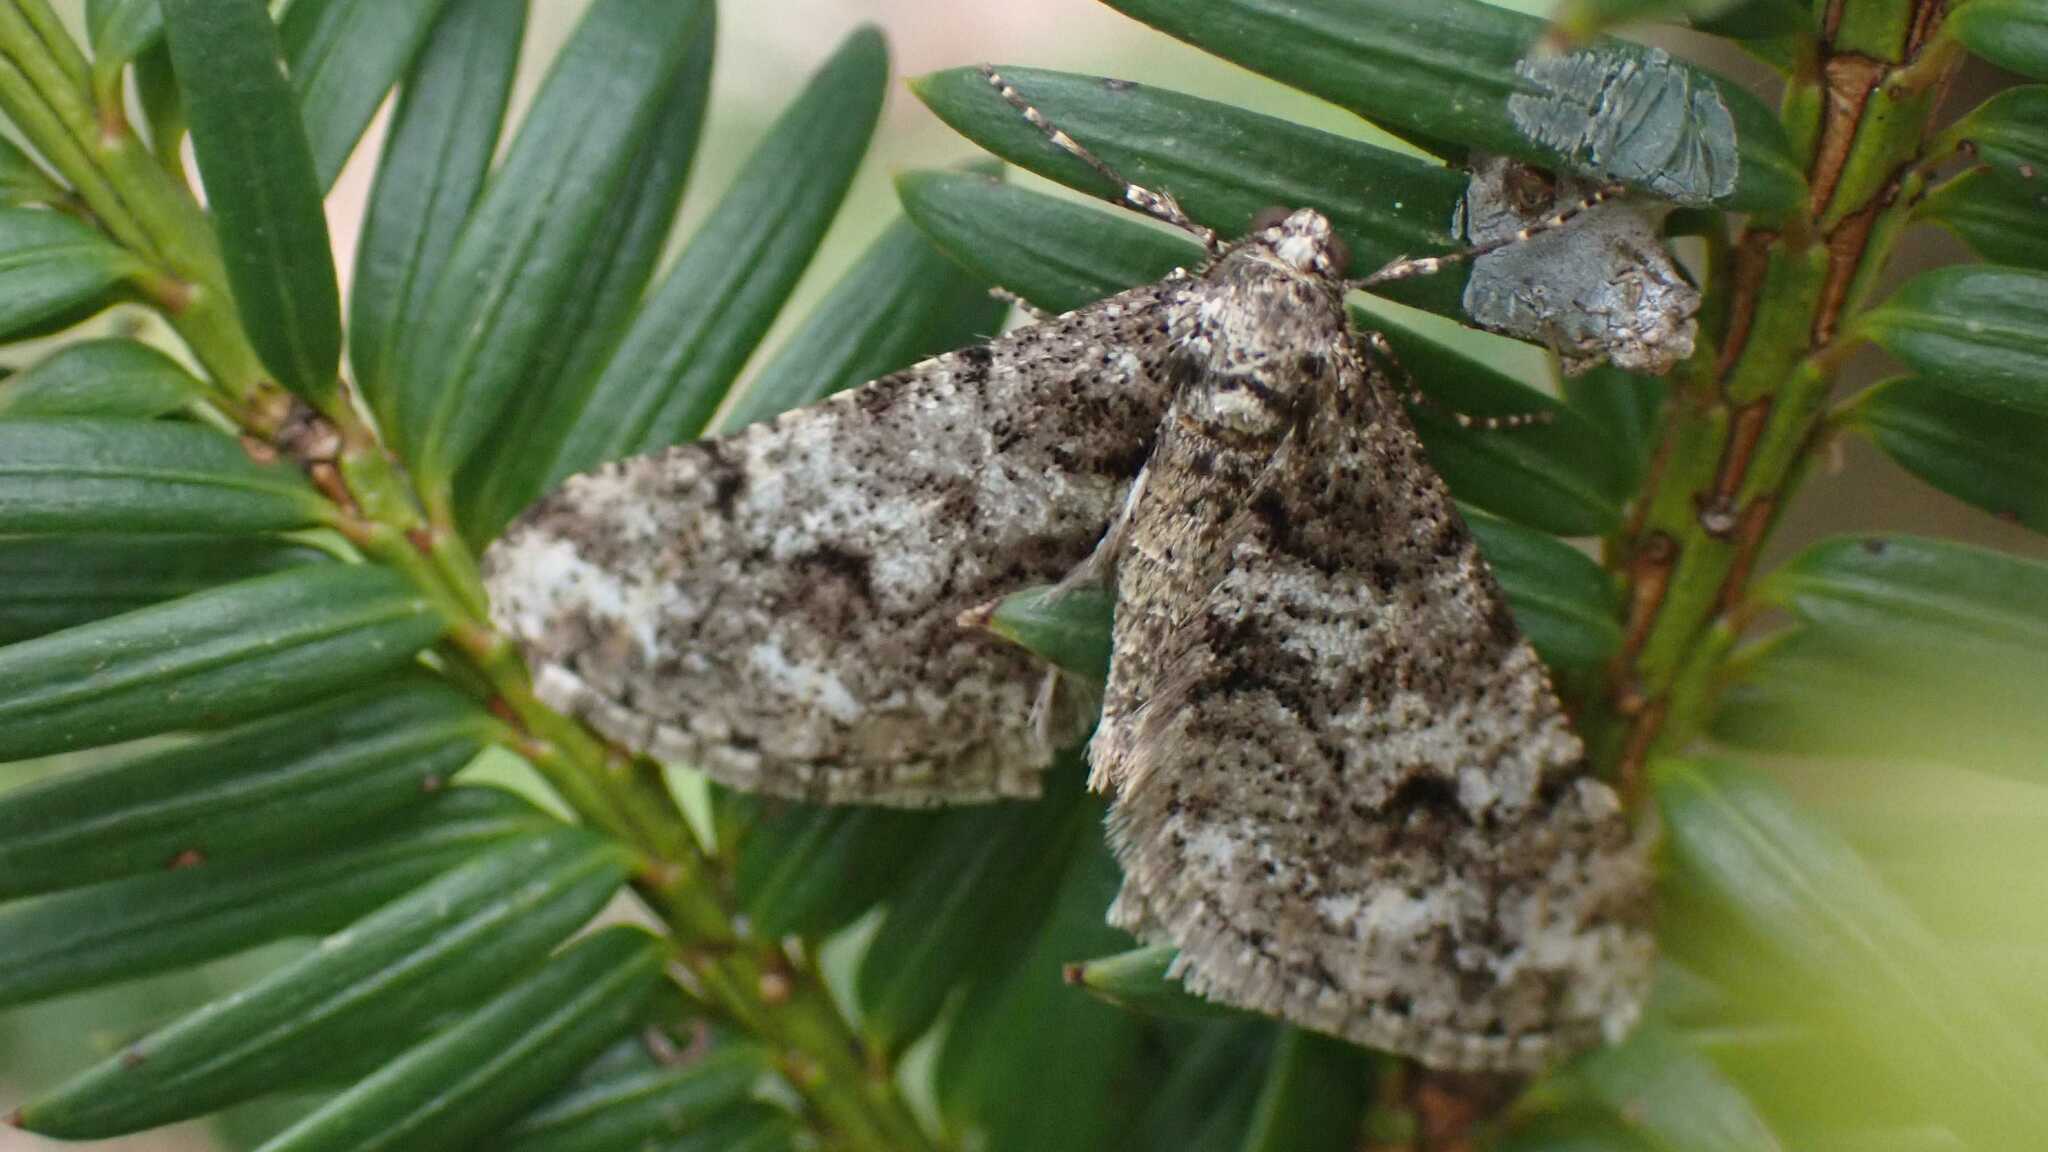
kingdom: Animalia
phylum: Arthropoda
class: Insecta
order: Lepidoptera
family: Geometridae
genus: Agriopis
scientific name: Agriopis leucophaearia
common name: Spring usher
